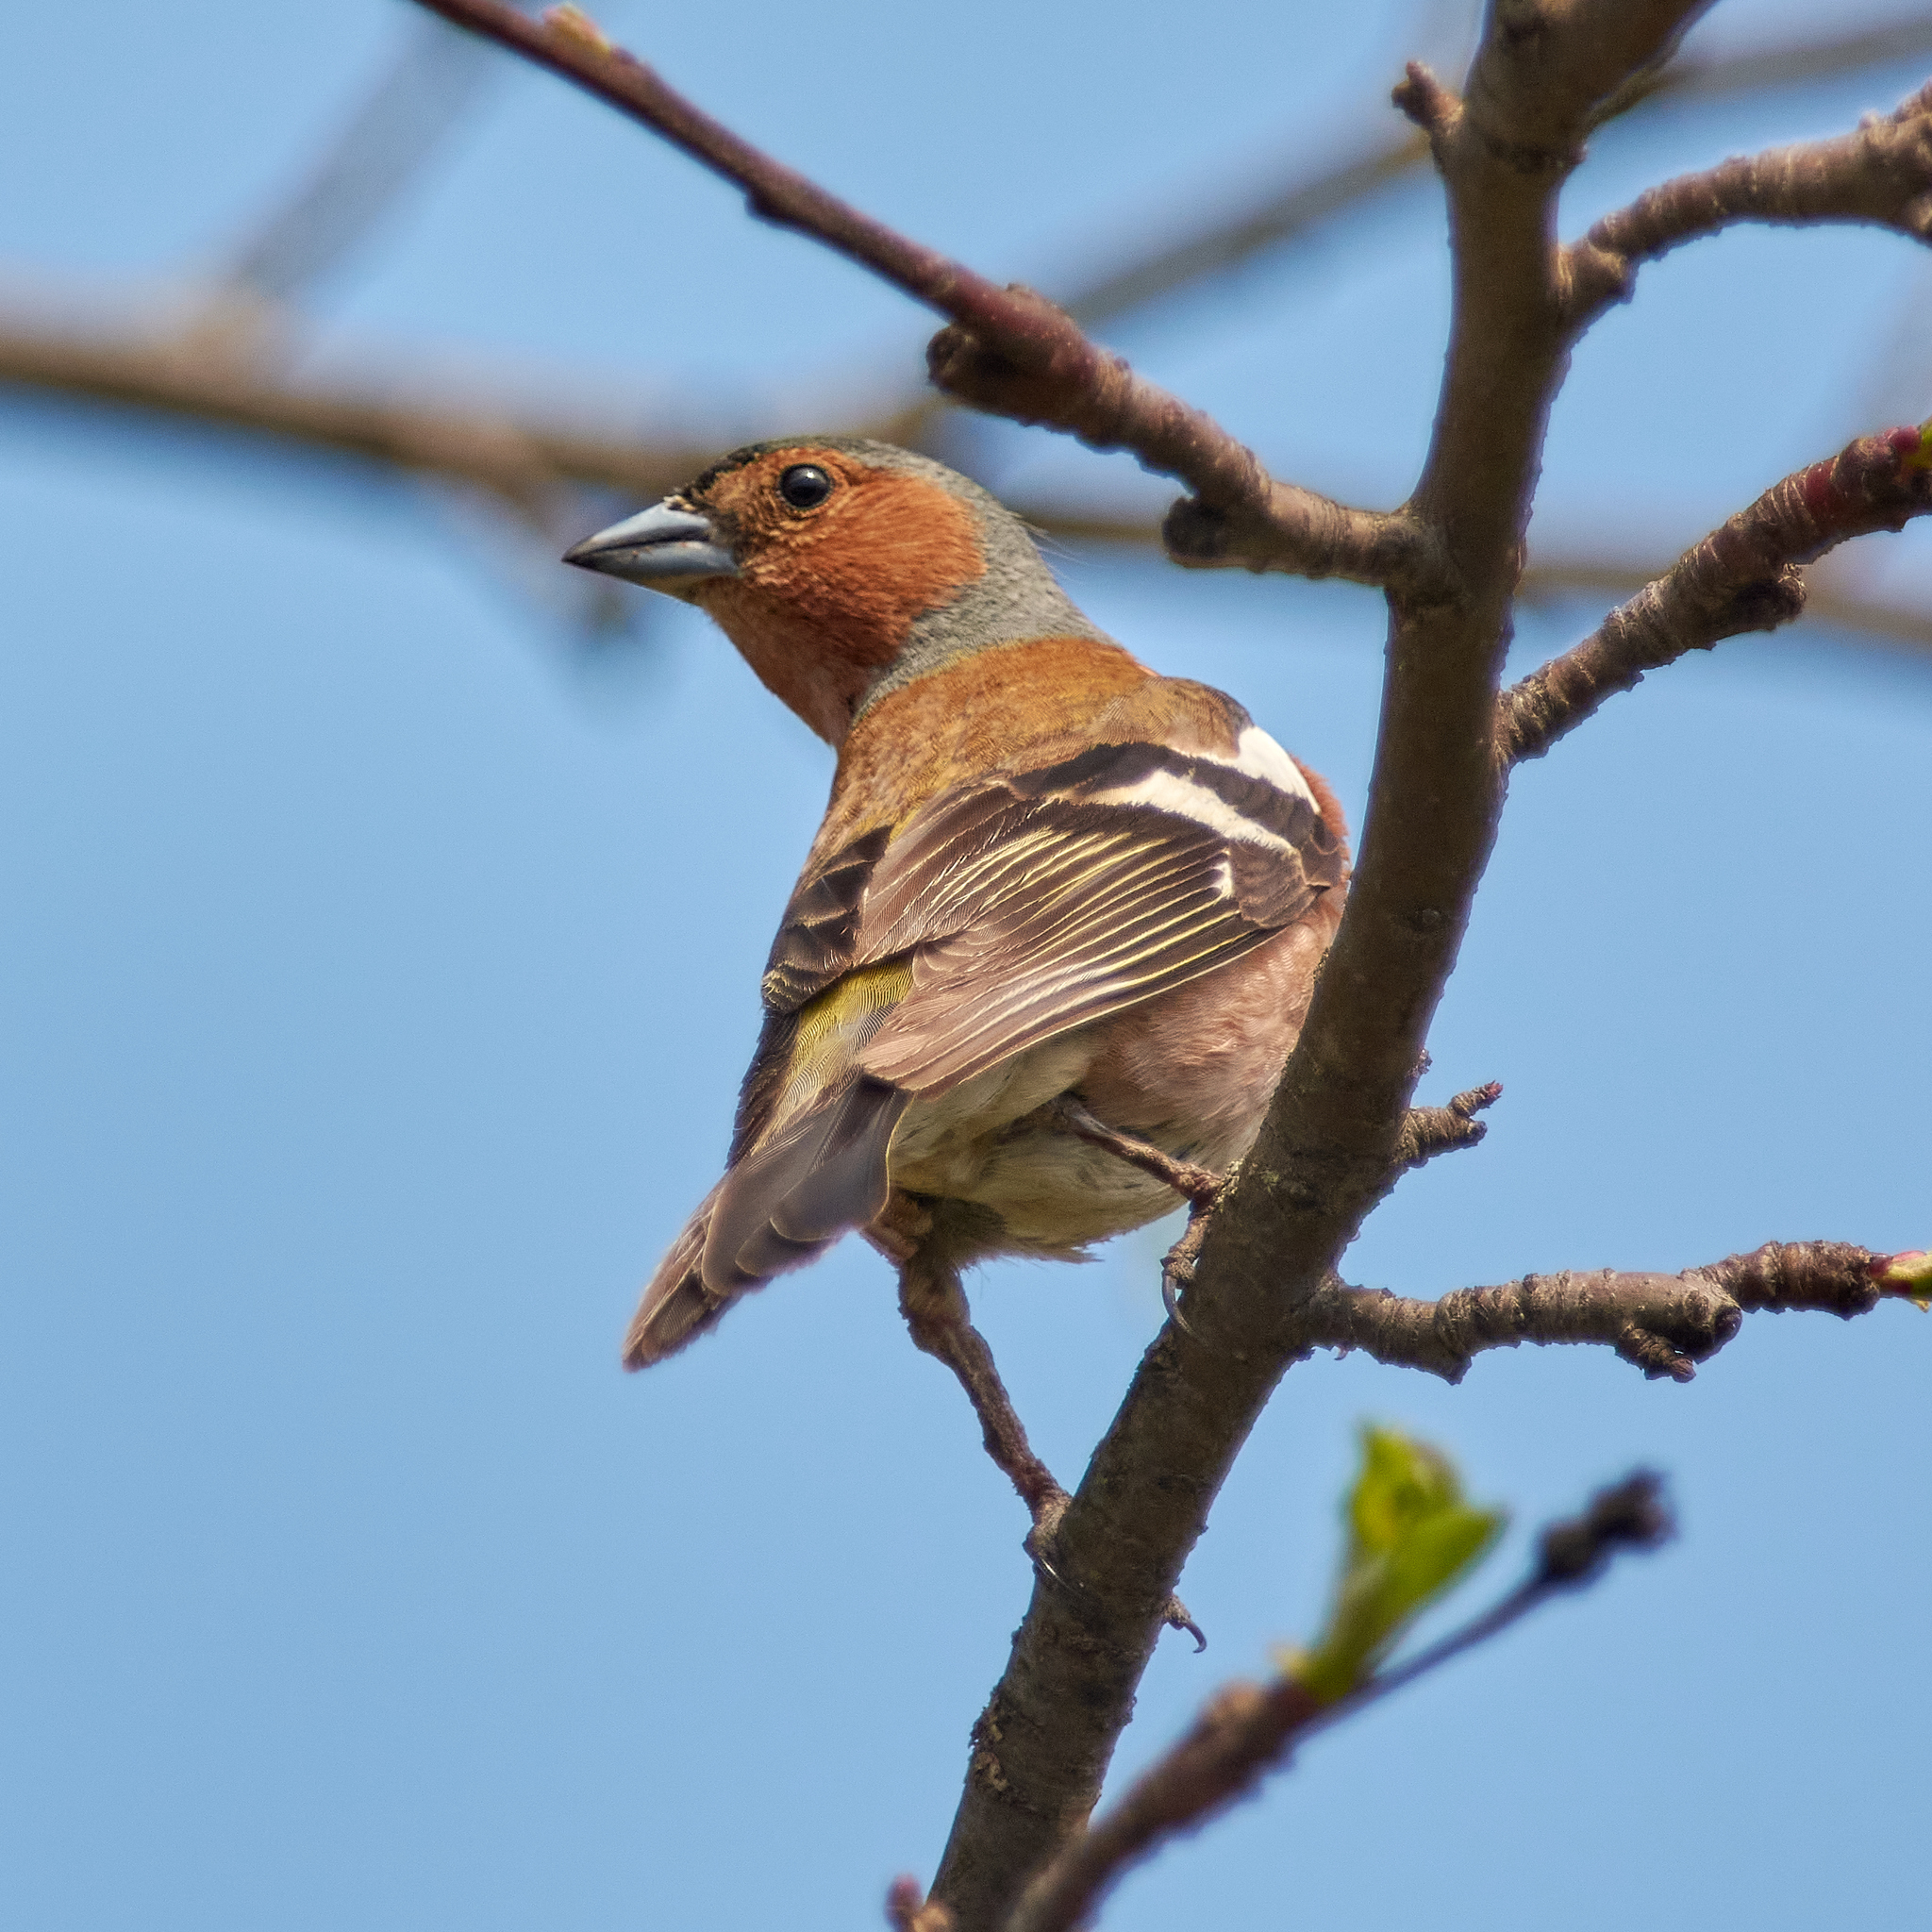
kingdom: Animalia
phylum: Chordata
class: Aves
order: Passeriformes
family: Fringillidae
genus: Fringilla
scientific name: Fringilla coelebs
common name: Common chaffinch
